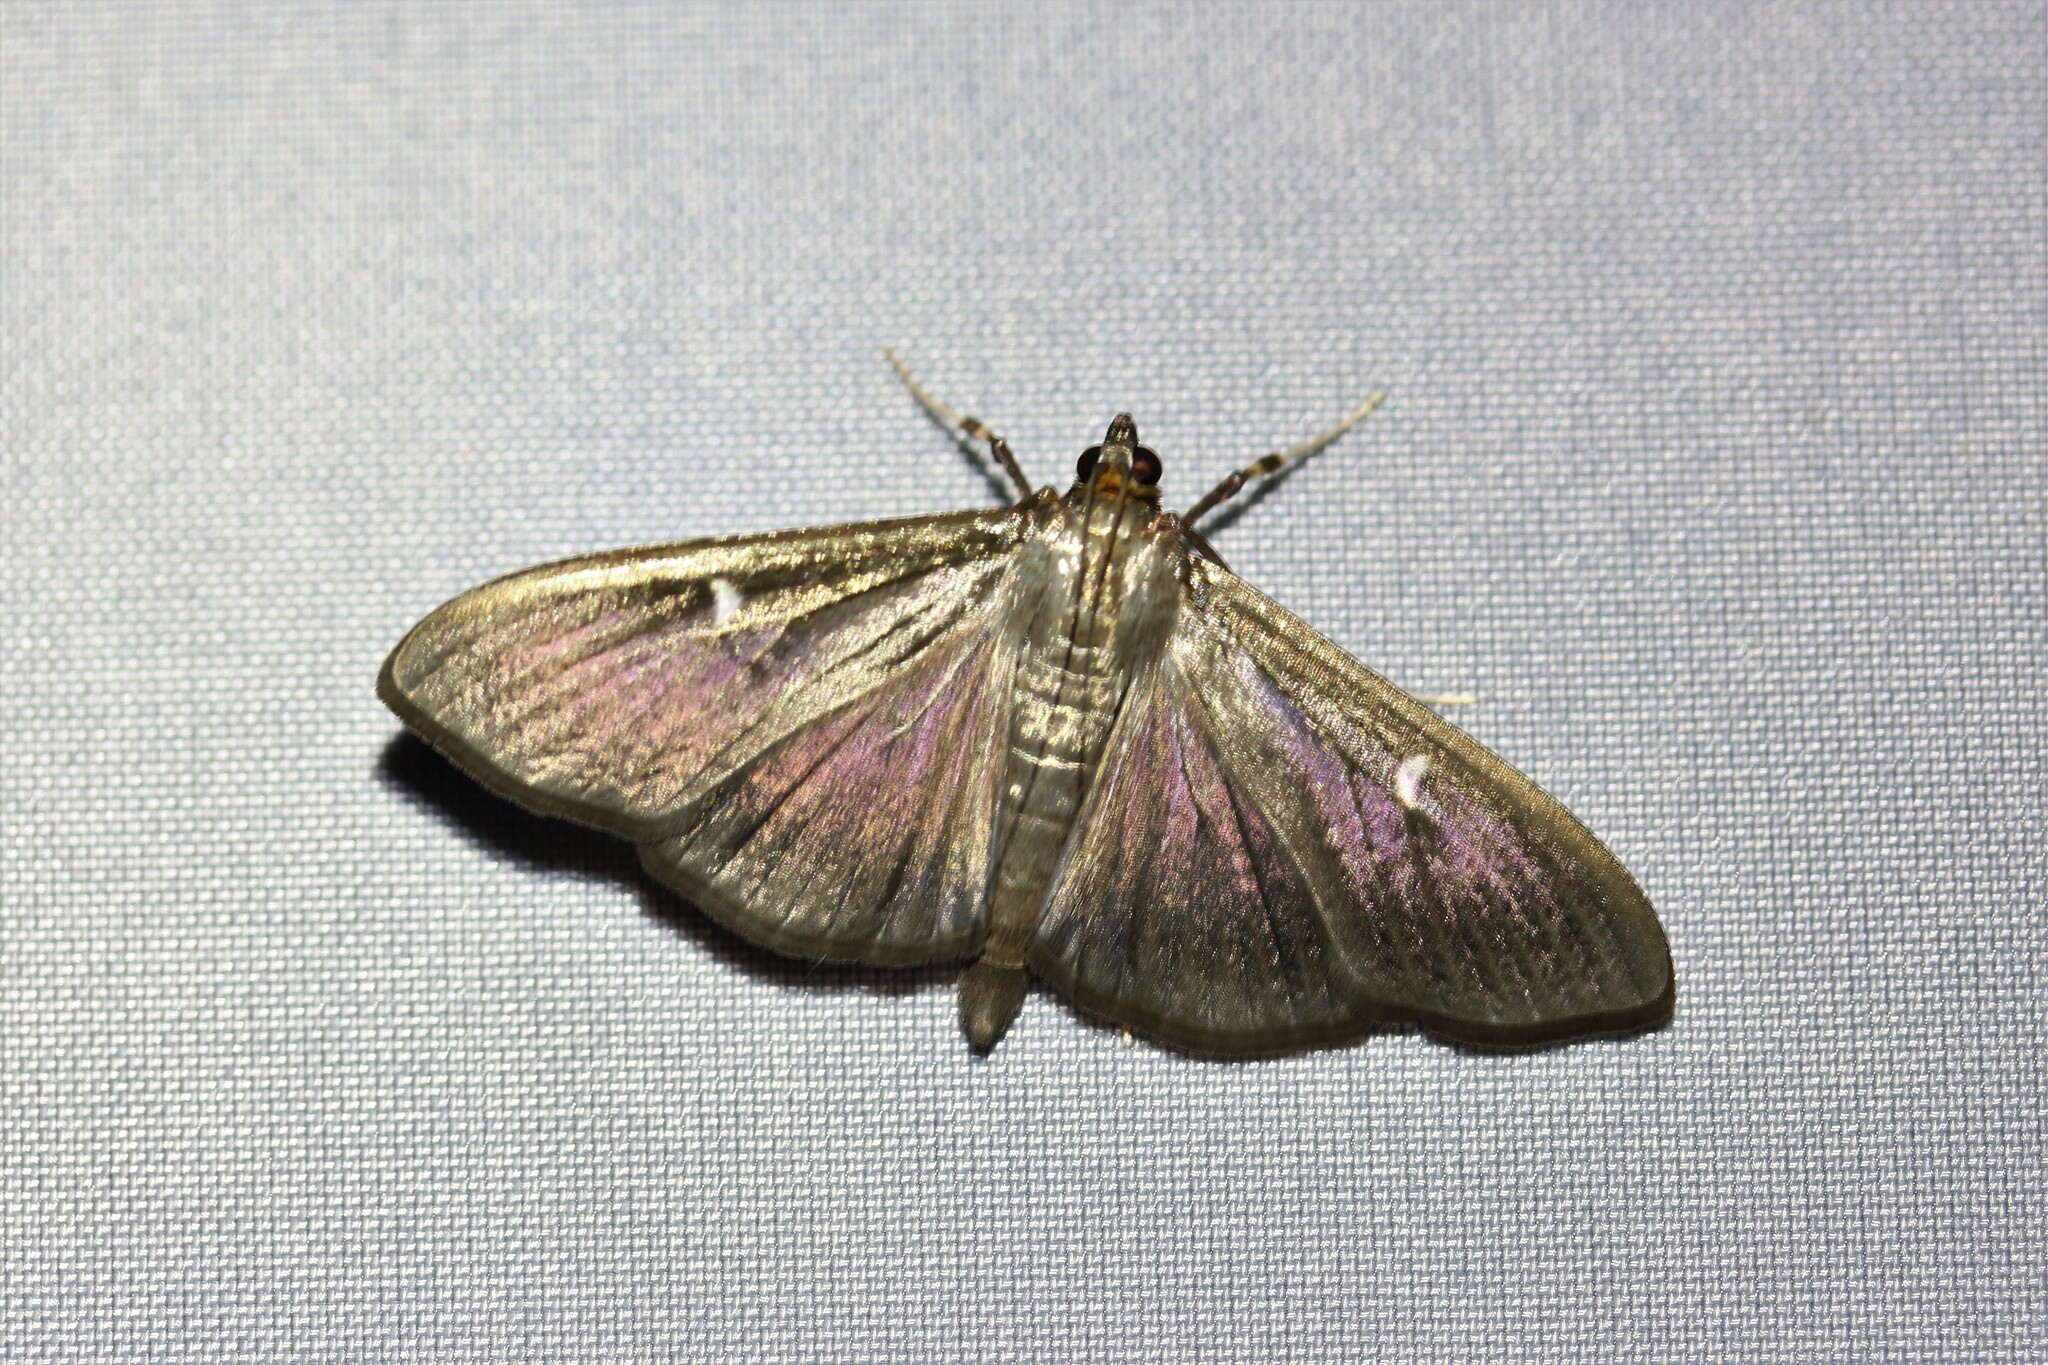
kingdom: Animalia
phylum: Arthropoda
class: Insecta
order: Lepidoptera
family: Crambidae
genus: Cydalima
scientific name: Cydalima perspectalis
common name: Box tree moth
